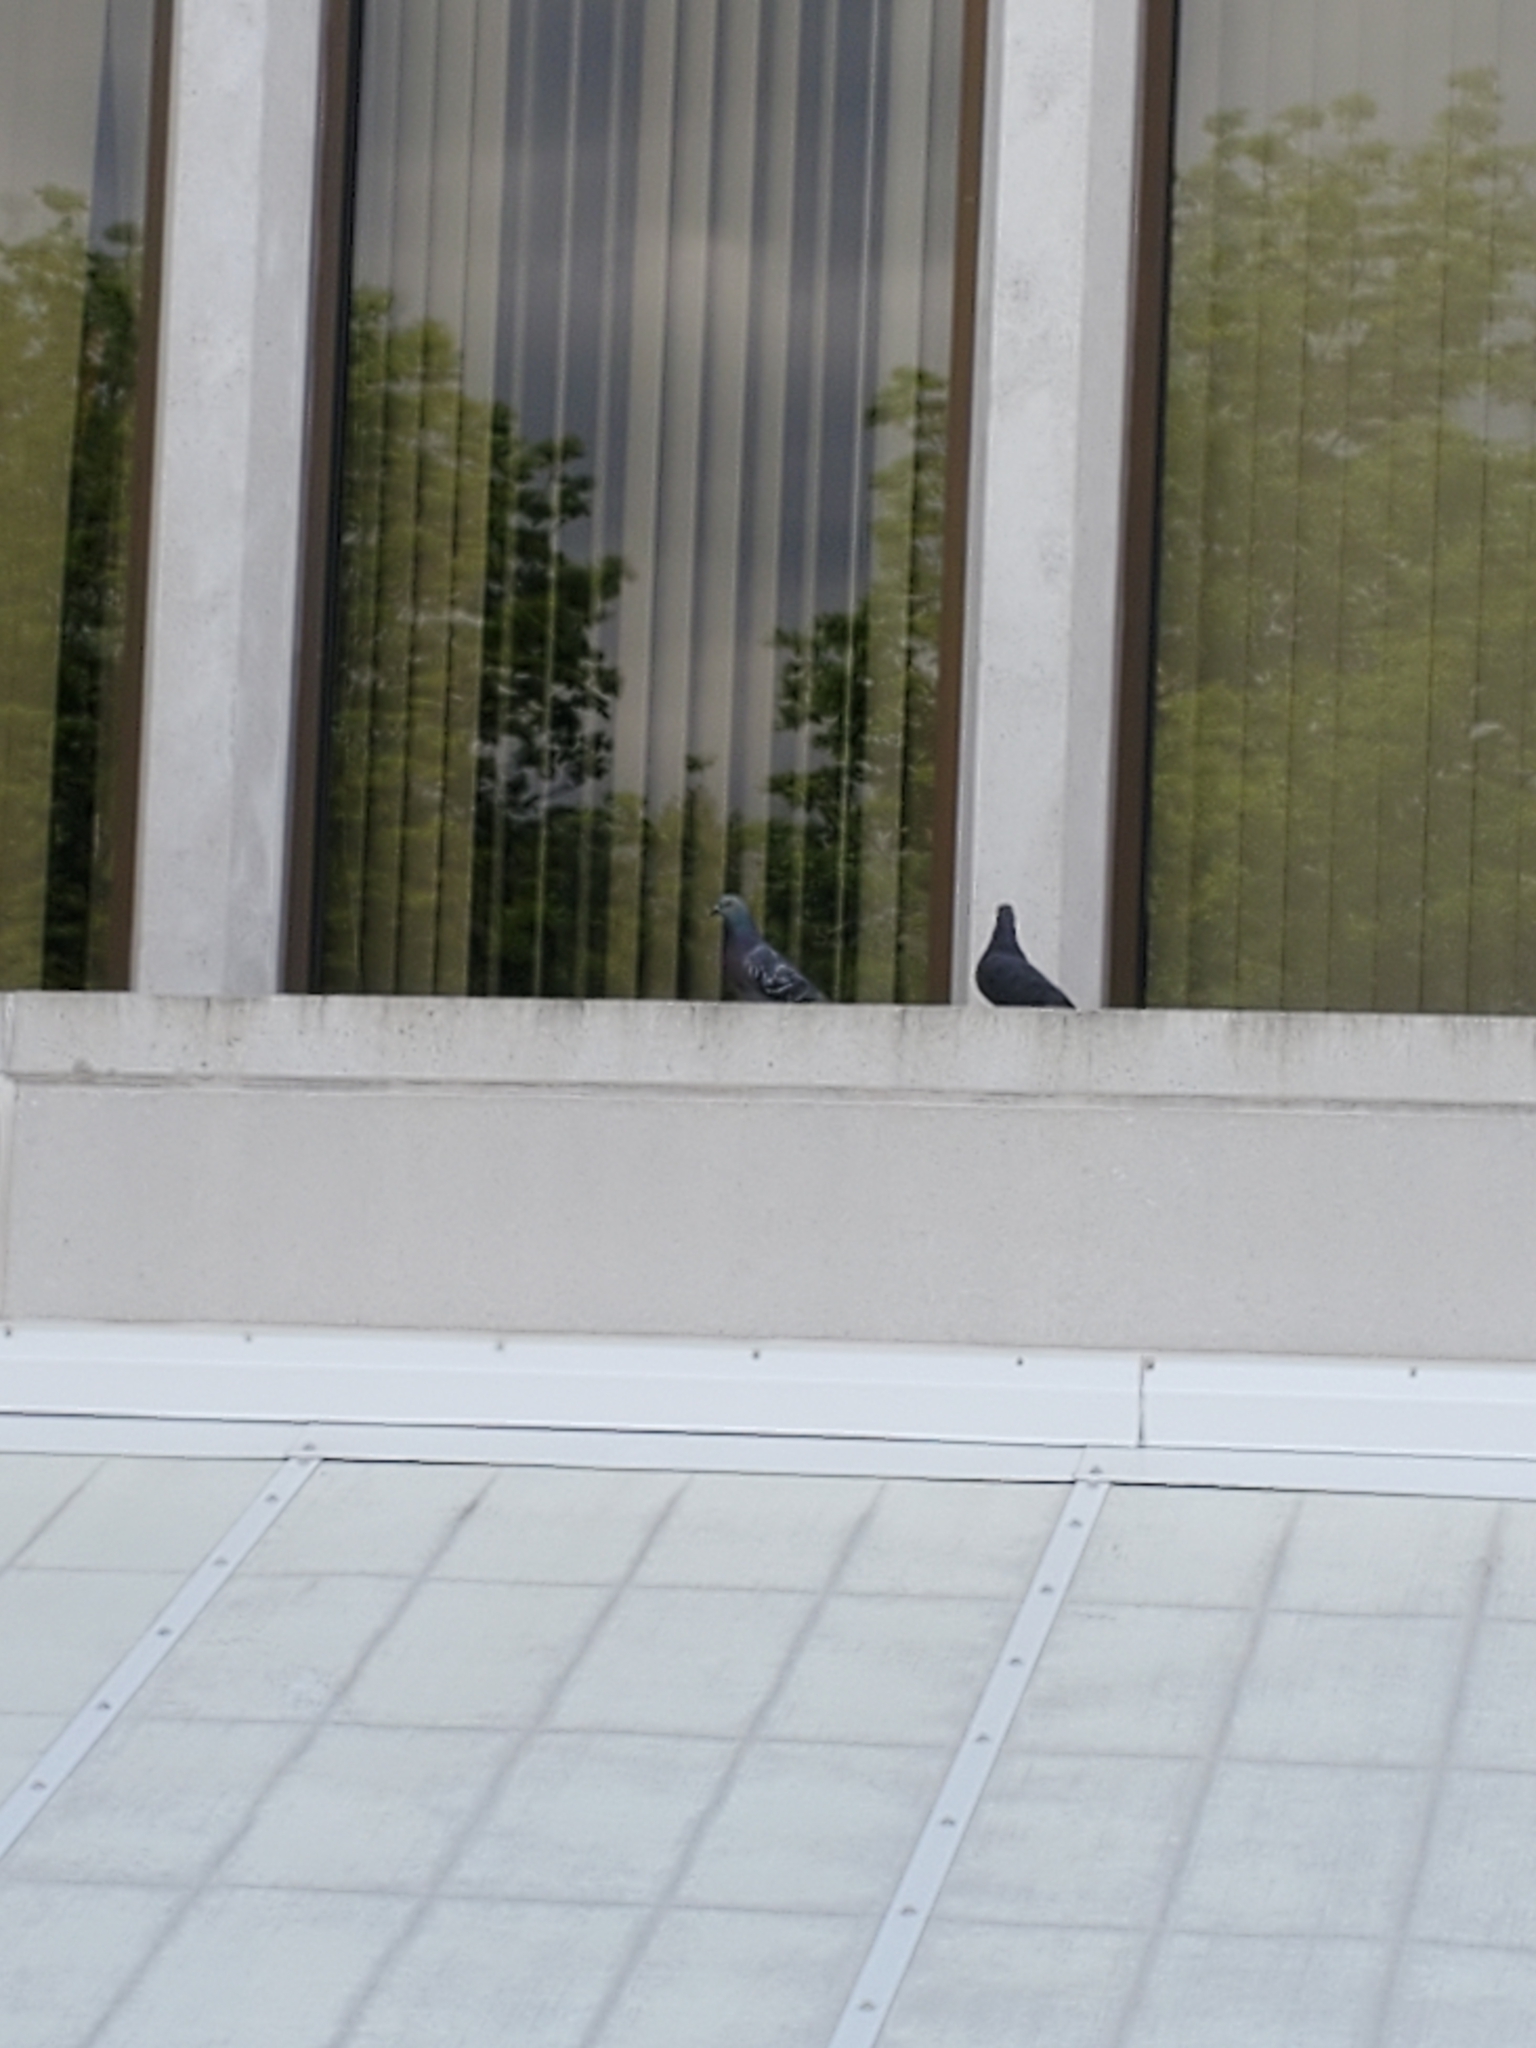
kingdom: Animalia
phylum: Chordata
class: Aves
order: Columbiformes
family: Columbidae
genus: Columba
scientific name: Columba livia
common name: Rock pigeon
